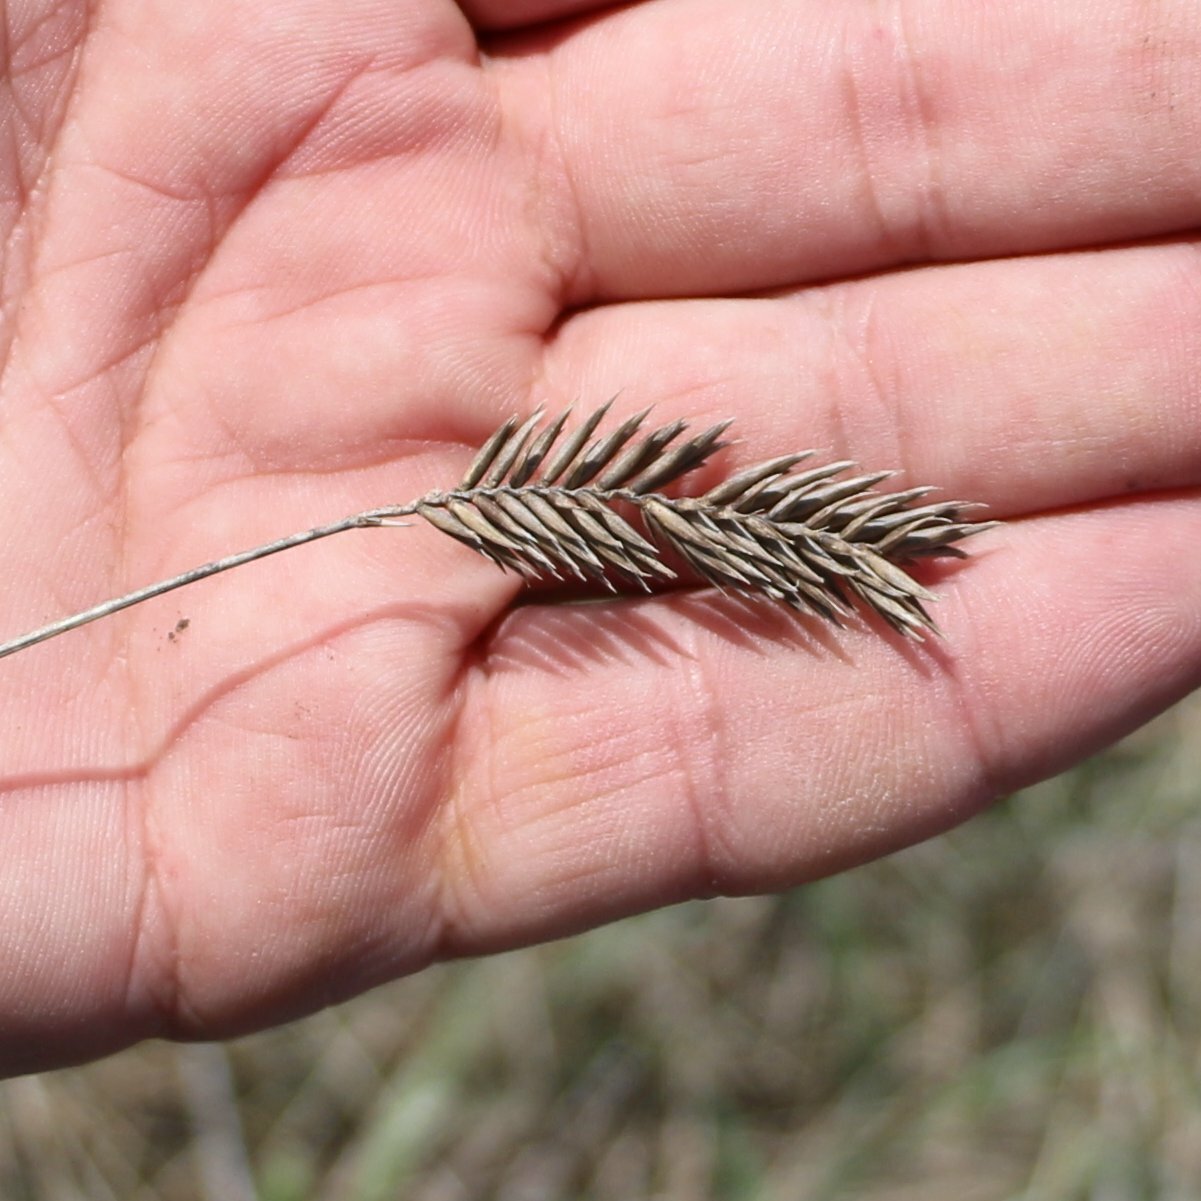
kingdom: Plantae
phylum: Tracheophyta
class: Liliopsida
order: Poales
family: Poaceae
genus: Agropyron
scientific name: Agropyron cristatum
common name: Crested wheatgrass
